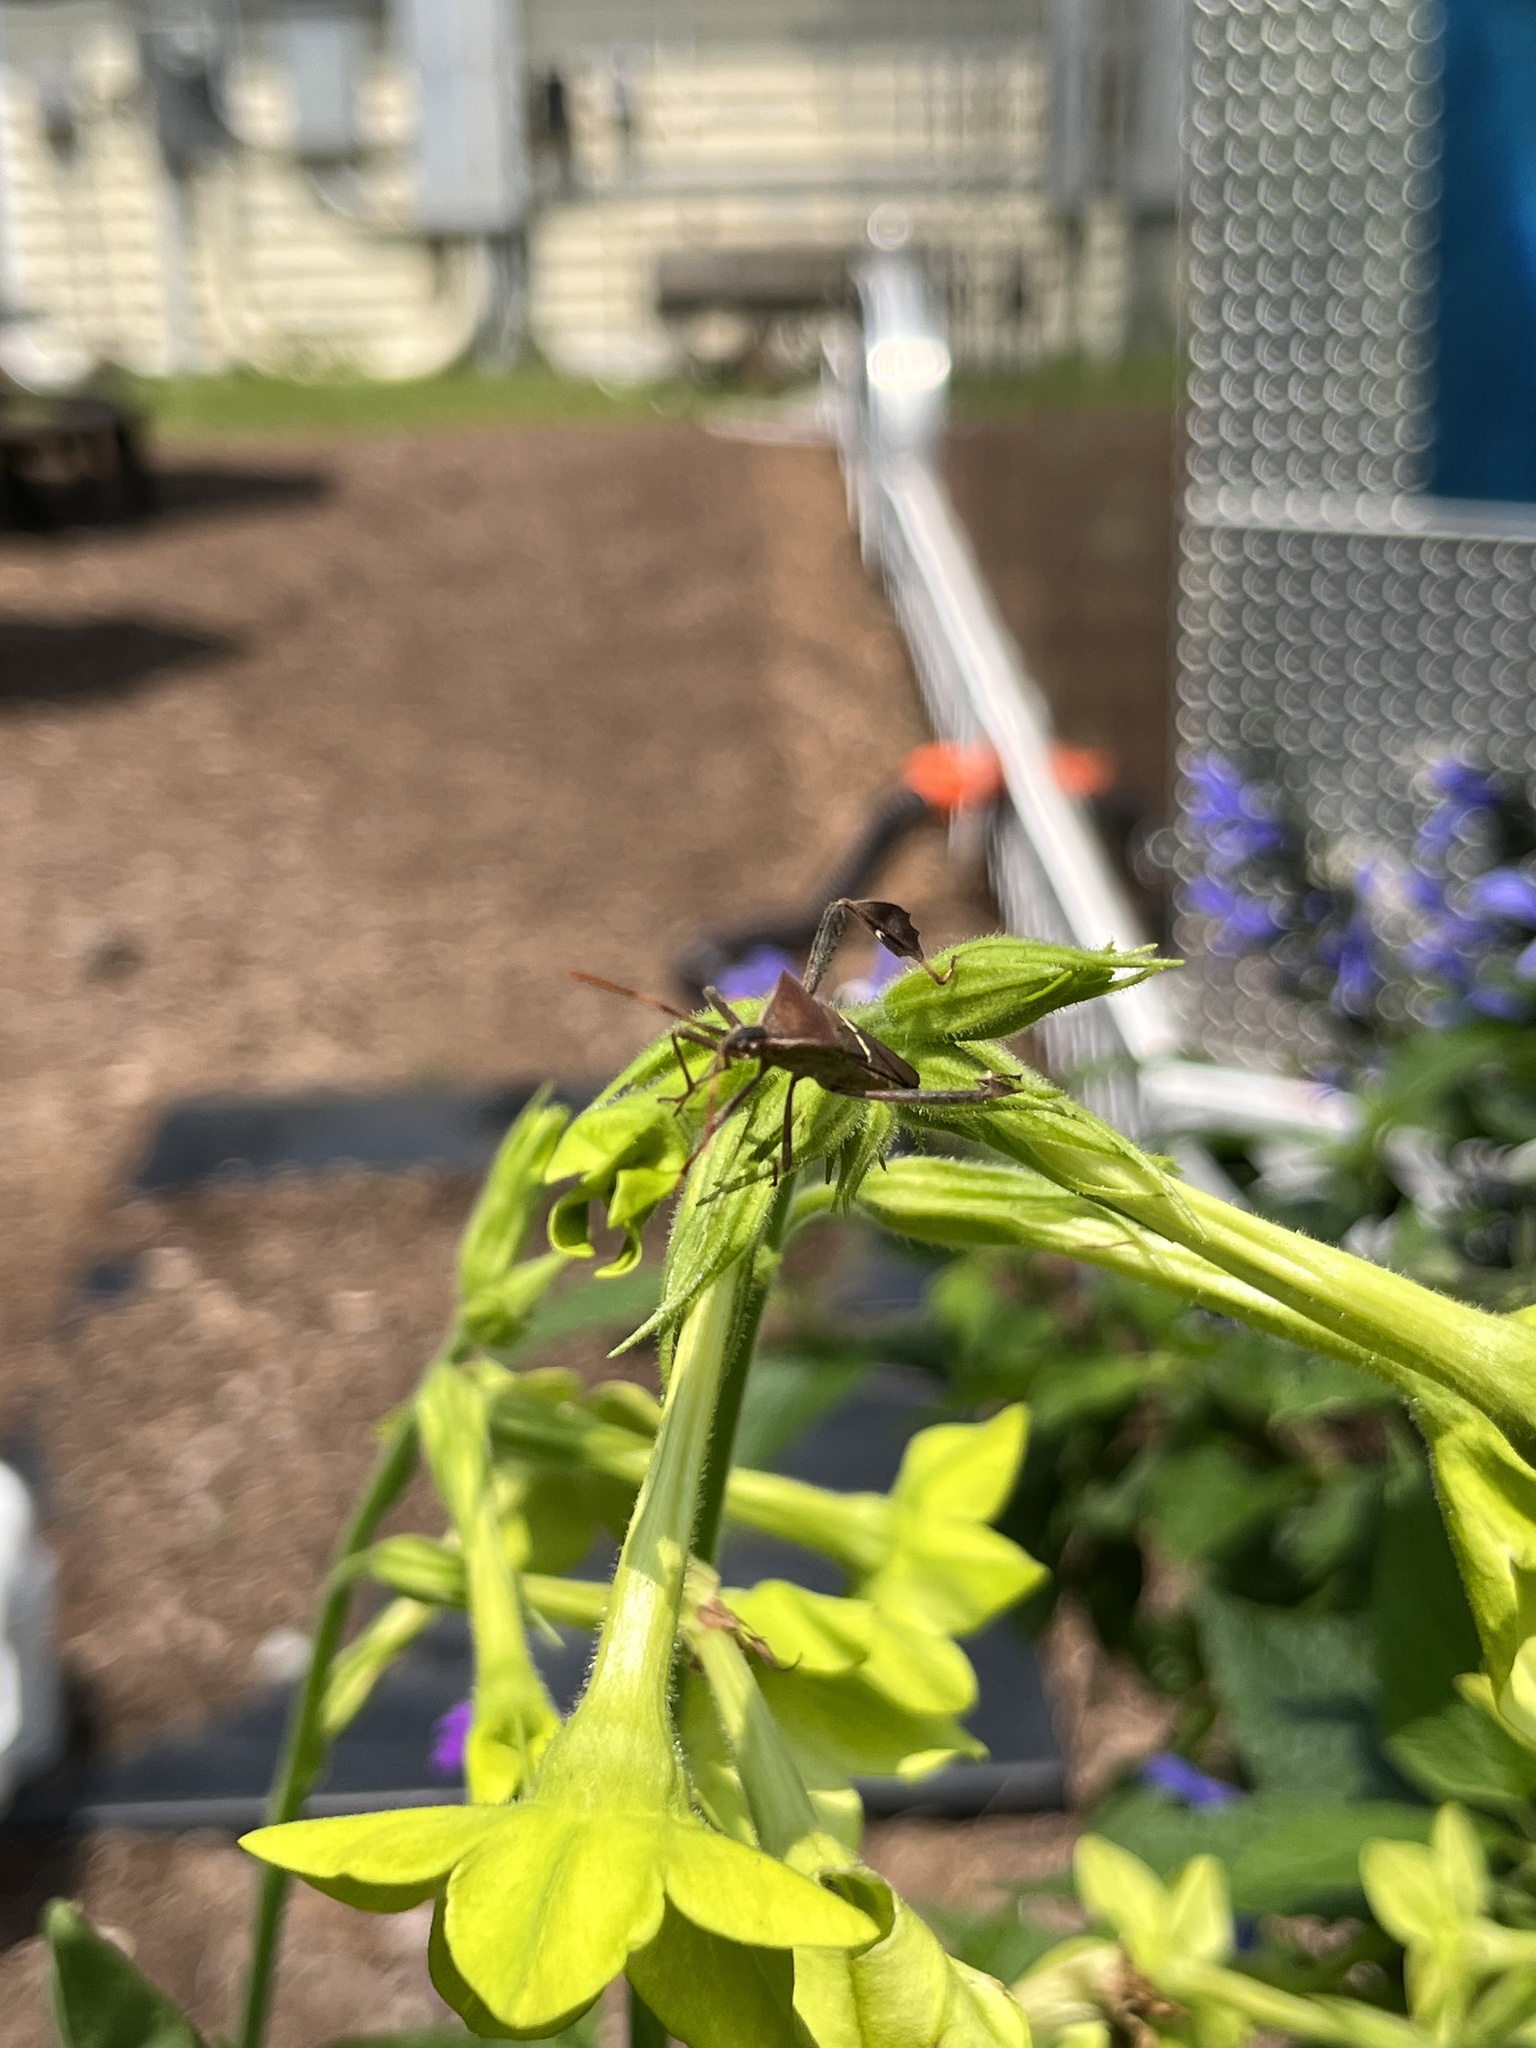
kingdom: Animalia
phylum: Arthropoda
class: Insecta
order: Hemiptera
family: Coreidae
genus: Leptoglossus
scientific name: Leptoglossus phyllopus
